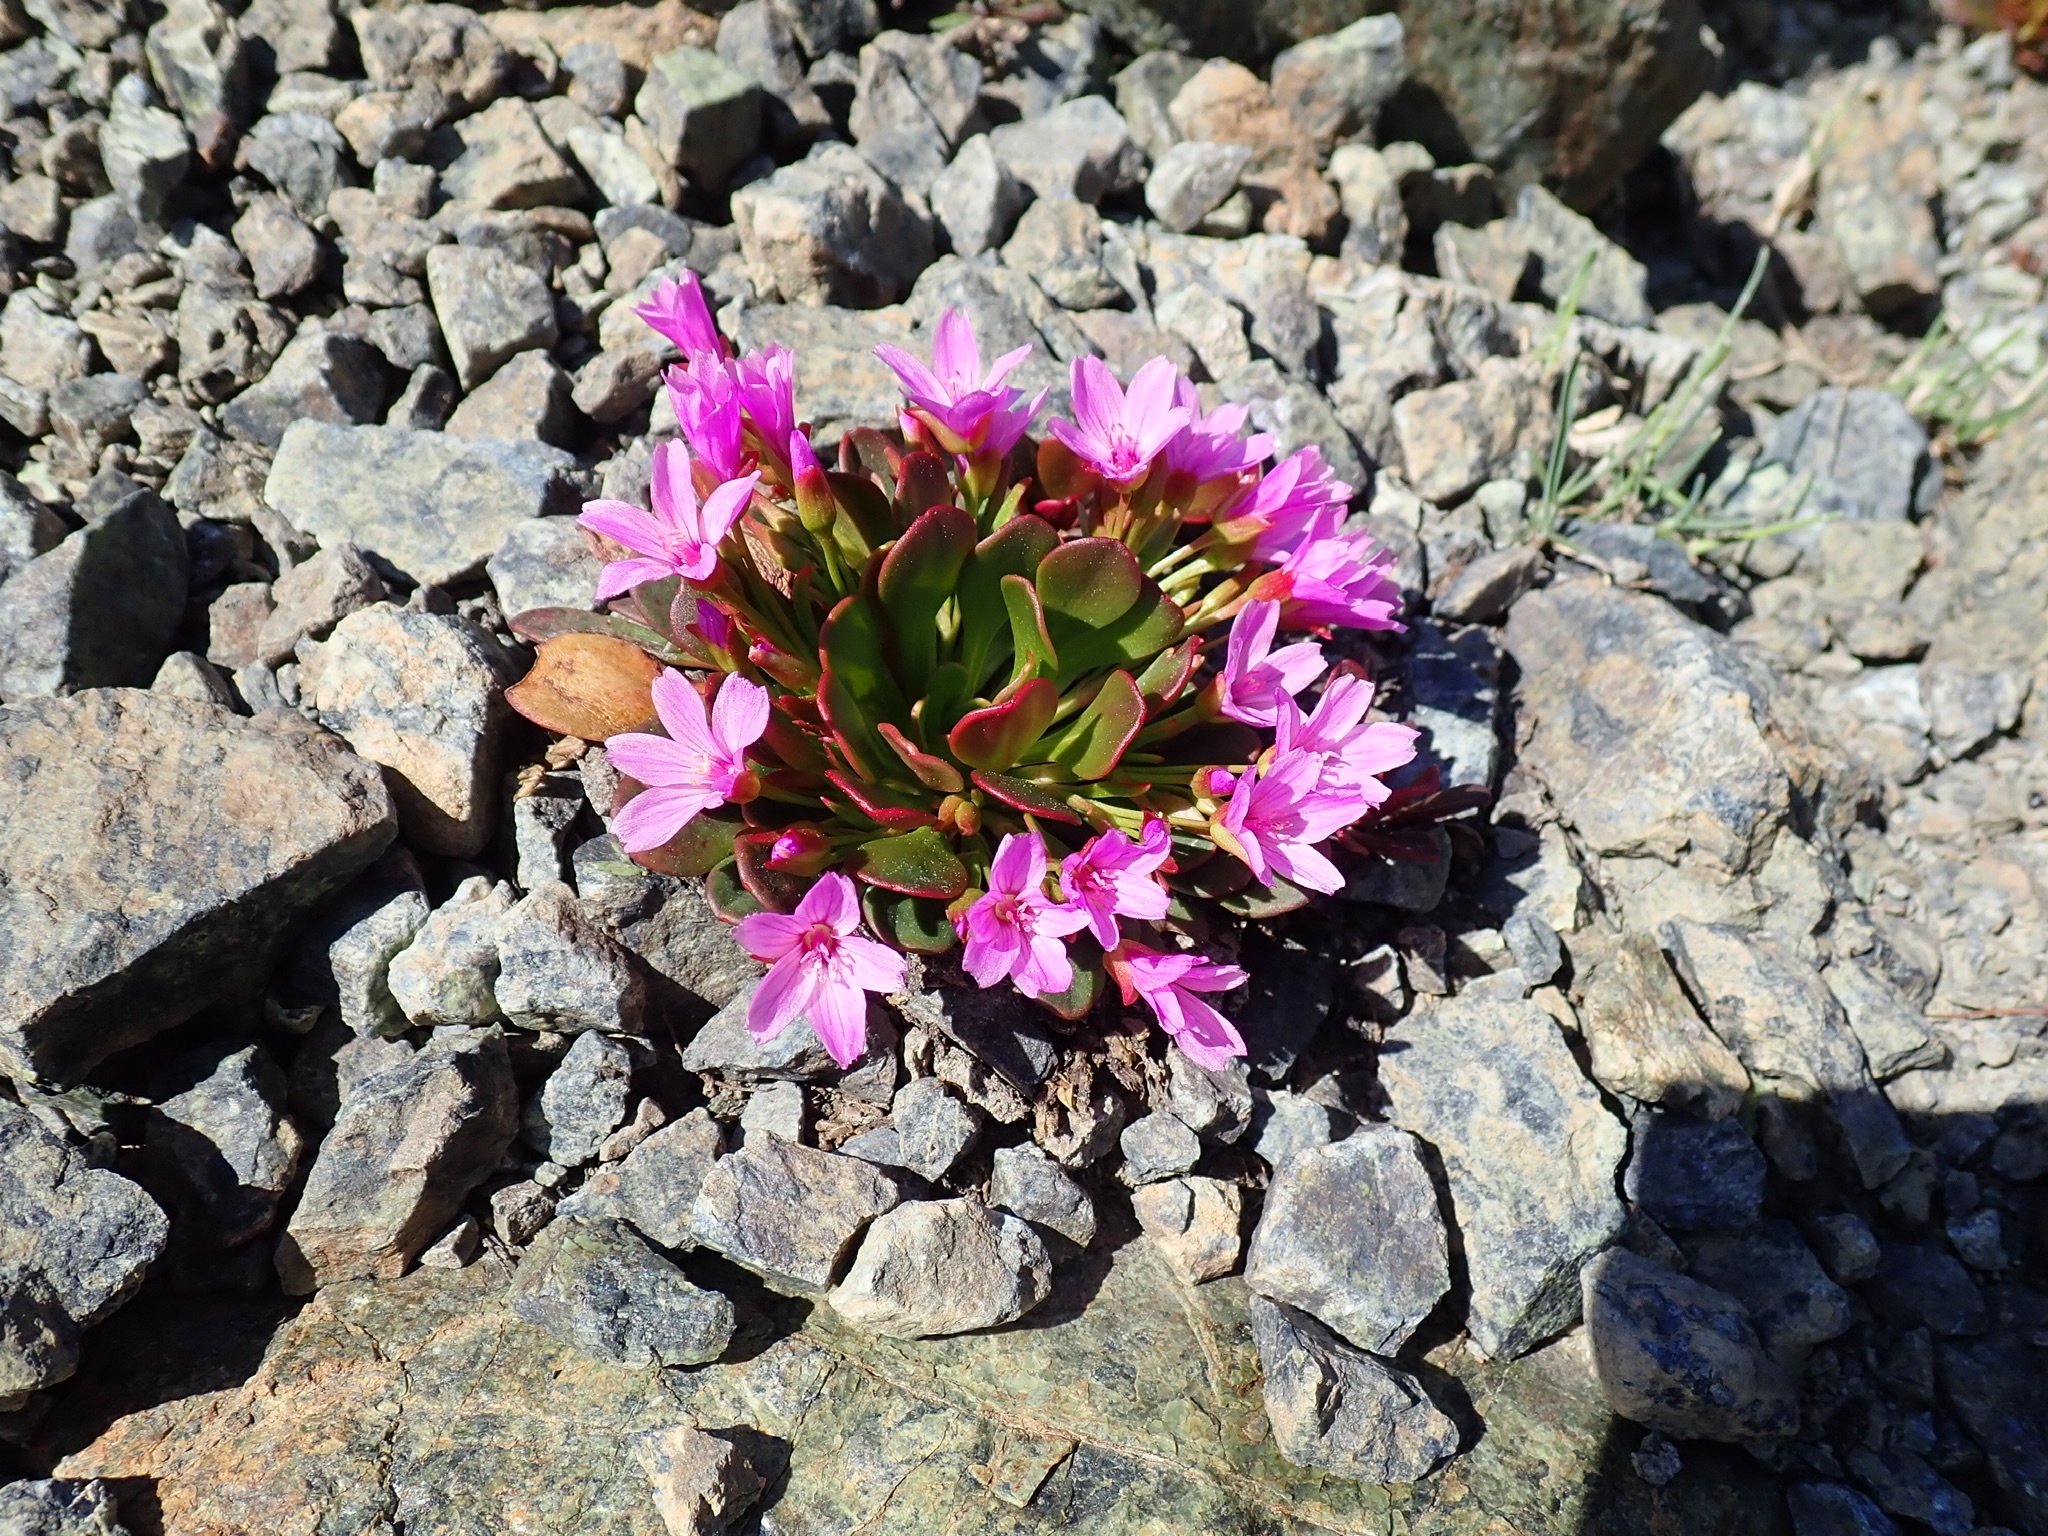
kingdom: Plantae
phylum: Tracheophyta
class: Magnoliopsida
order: Caryophyllales
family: Montiaceae
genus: Claytonia
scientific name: Claytonia megarhiza
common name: Alpine spring beauty
